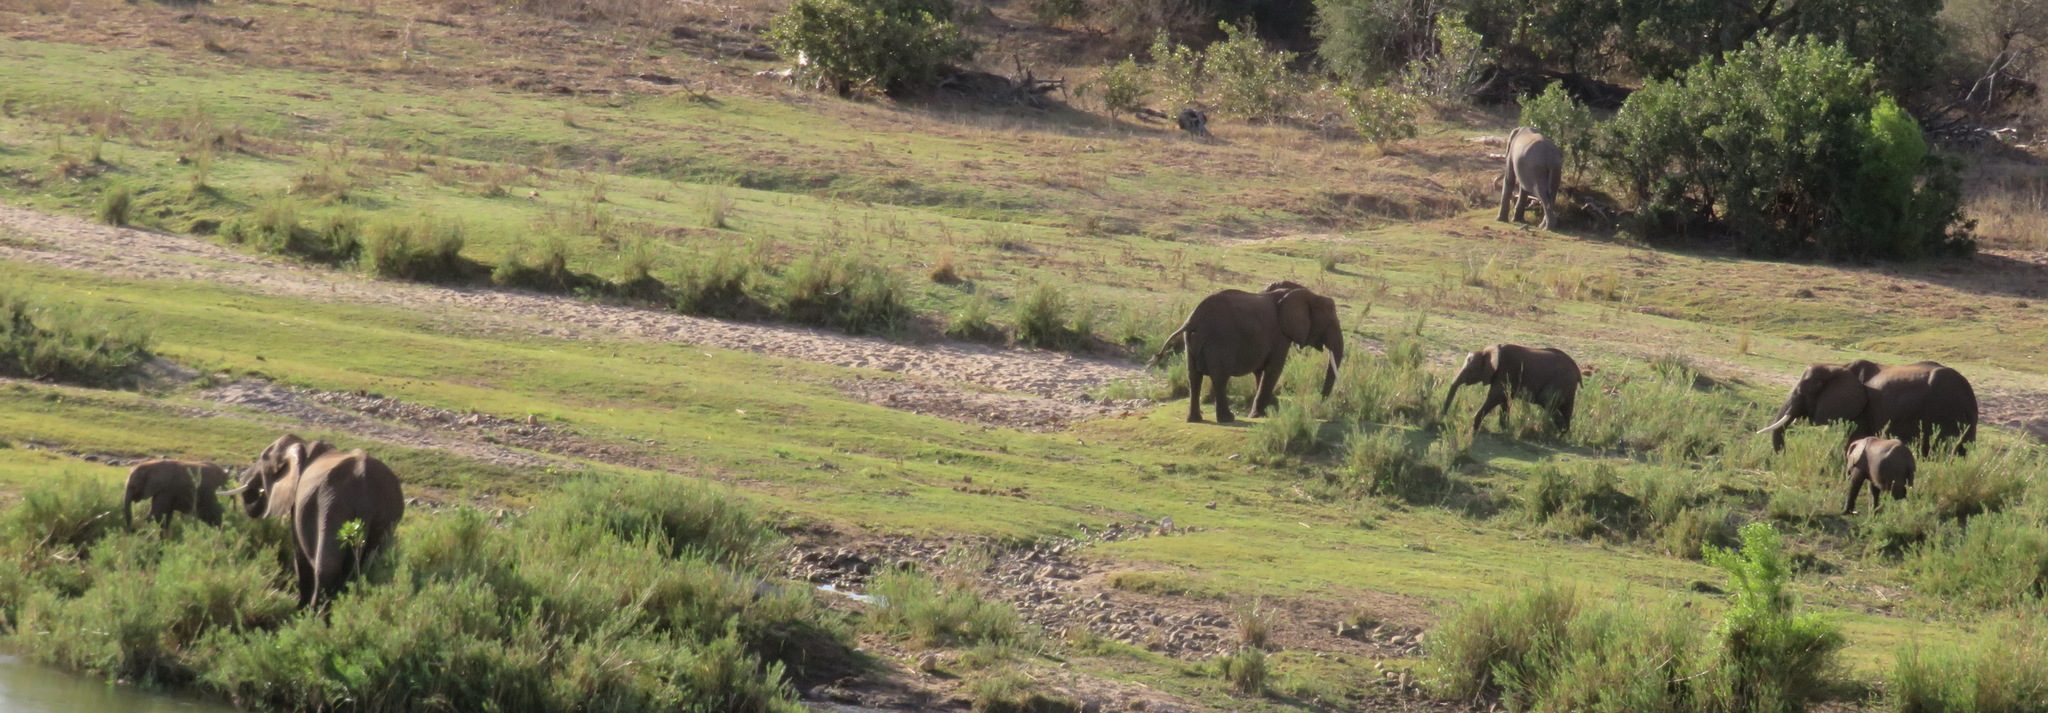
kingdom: Animalia
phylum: Chordata
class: Mammalia
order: Proboscidea
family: Elephantidae
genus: Loxodonta
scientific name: Loxodonta africana
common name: African elephant
